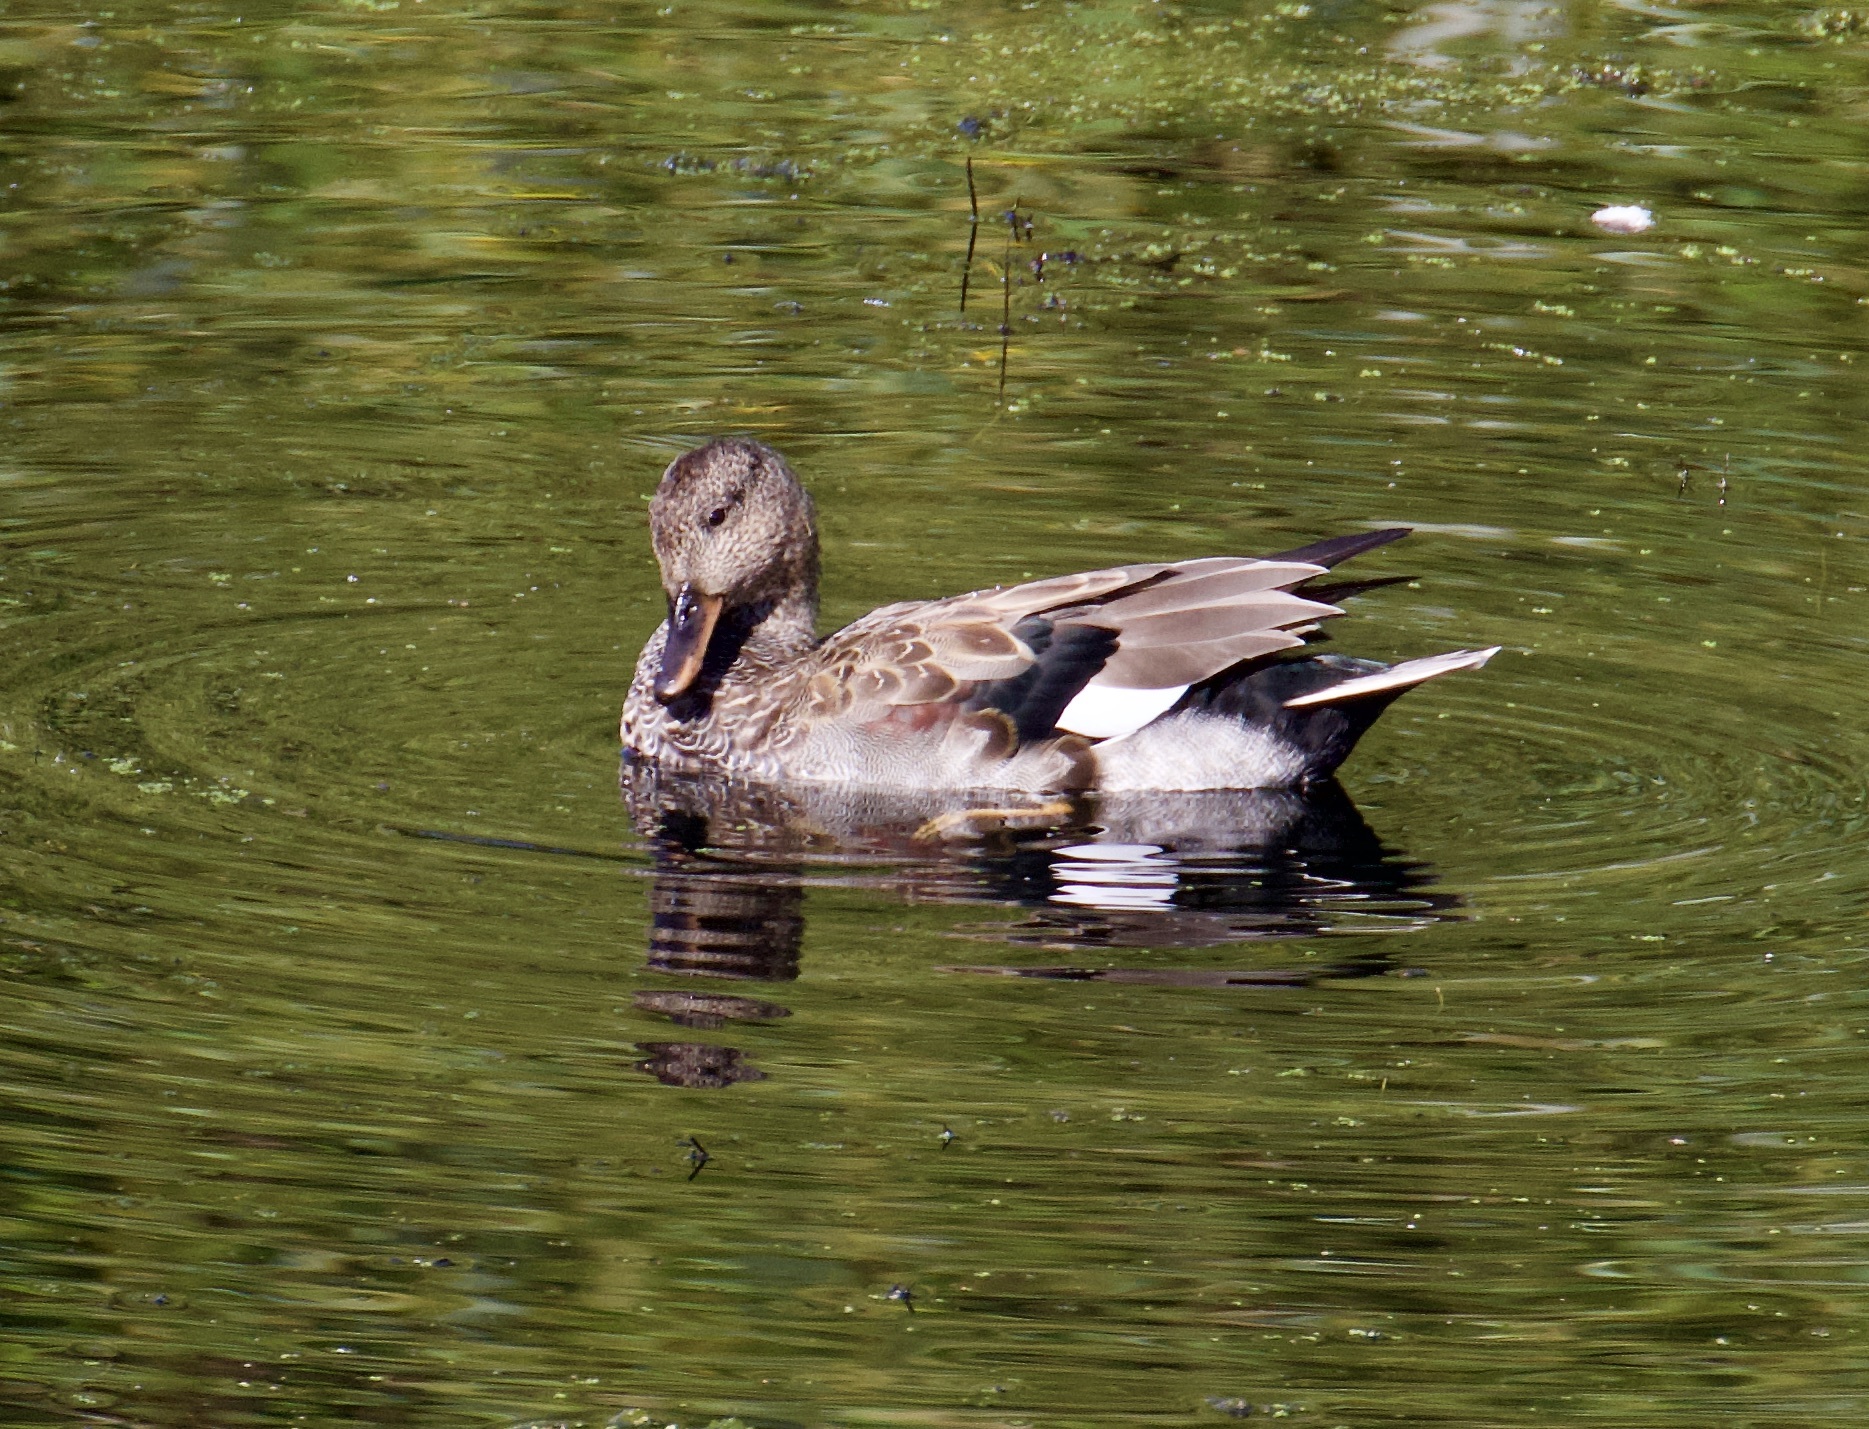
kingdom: Animalia
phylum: Chordata
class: Aves
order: Anseriformes
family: Anatidae
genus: Mareca
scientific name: Mareca strepera
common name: Gadwall
